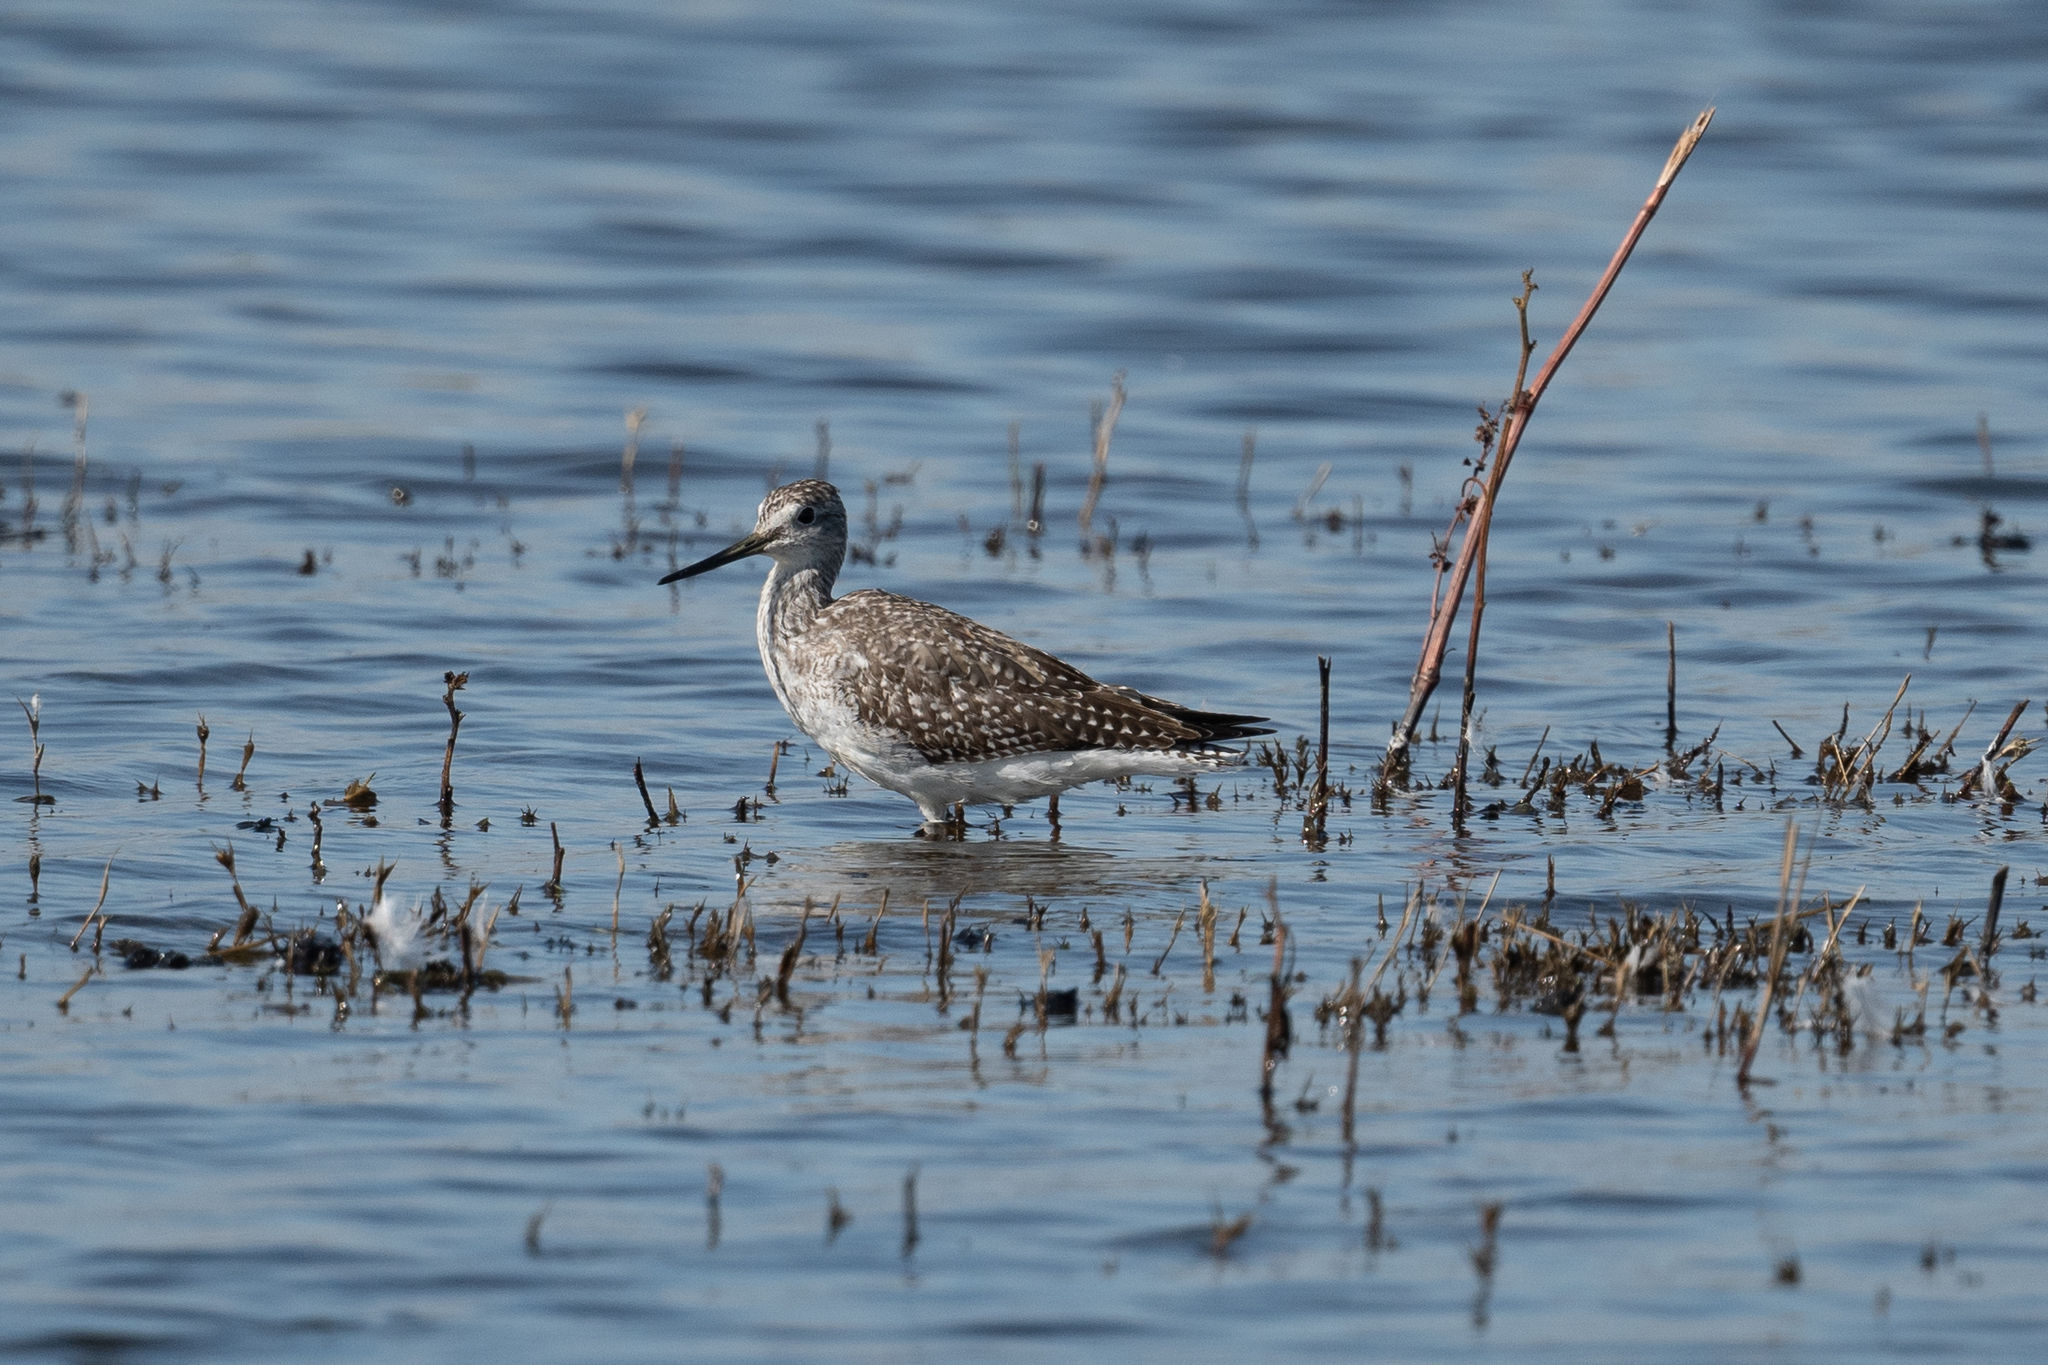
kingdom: Animalia
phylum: Chordata
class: Aves
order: Charadriiformes
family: Scolopacidae
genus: Tringa
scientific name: Tringa melanoleuca
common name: Greater yellowlegs
